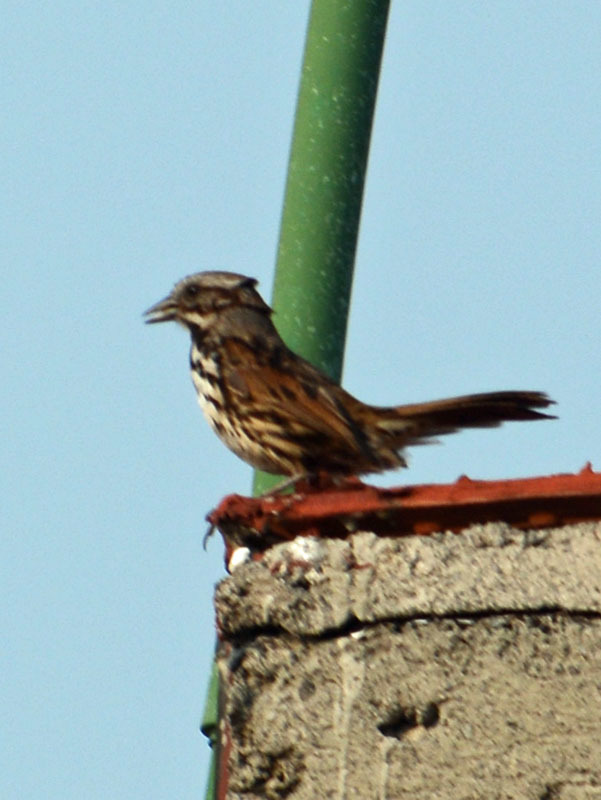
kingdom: Animalia
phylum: Chordata
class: Aves
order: Passeriformes
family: Passerellidae
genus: Melospiza
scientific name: Melospiza melodia
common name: Song sparrow
